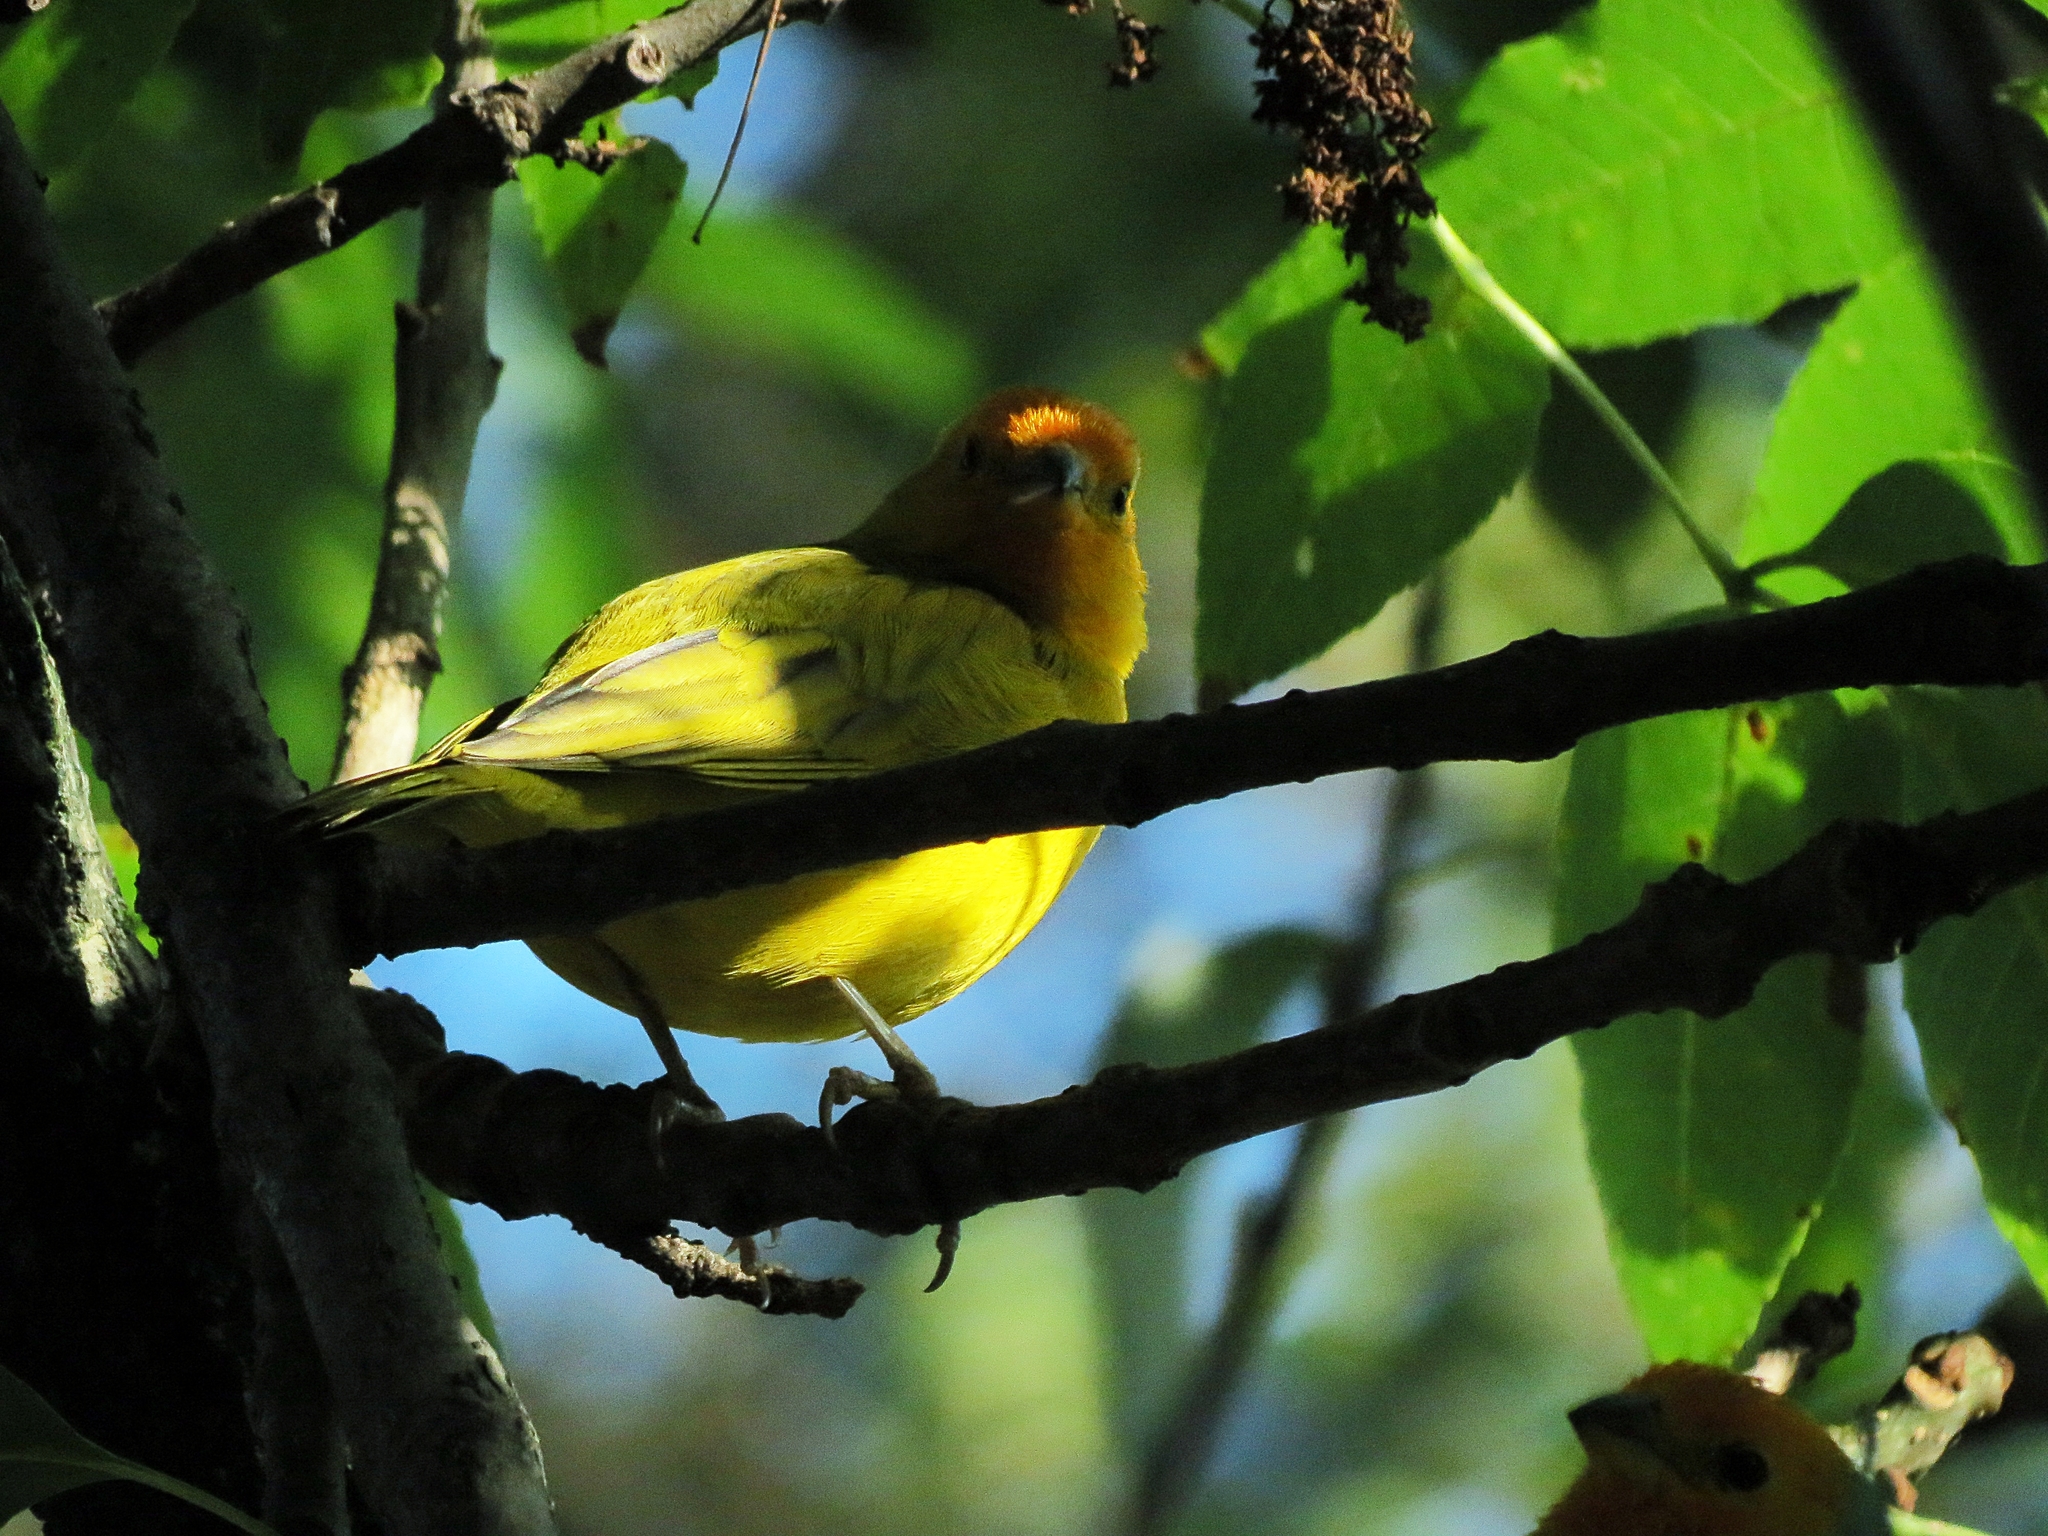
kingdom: Animalia
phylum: Chordata
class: Aves
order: Passeriformes
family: Thraupidae
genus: Sicalis
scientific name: Sicalis flaveola
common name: Saffron finch
